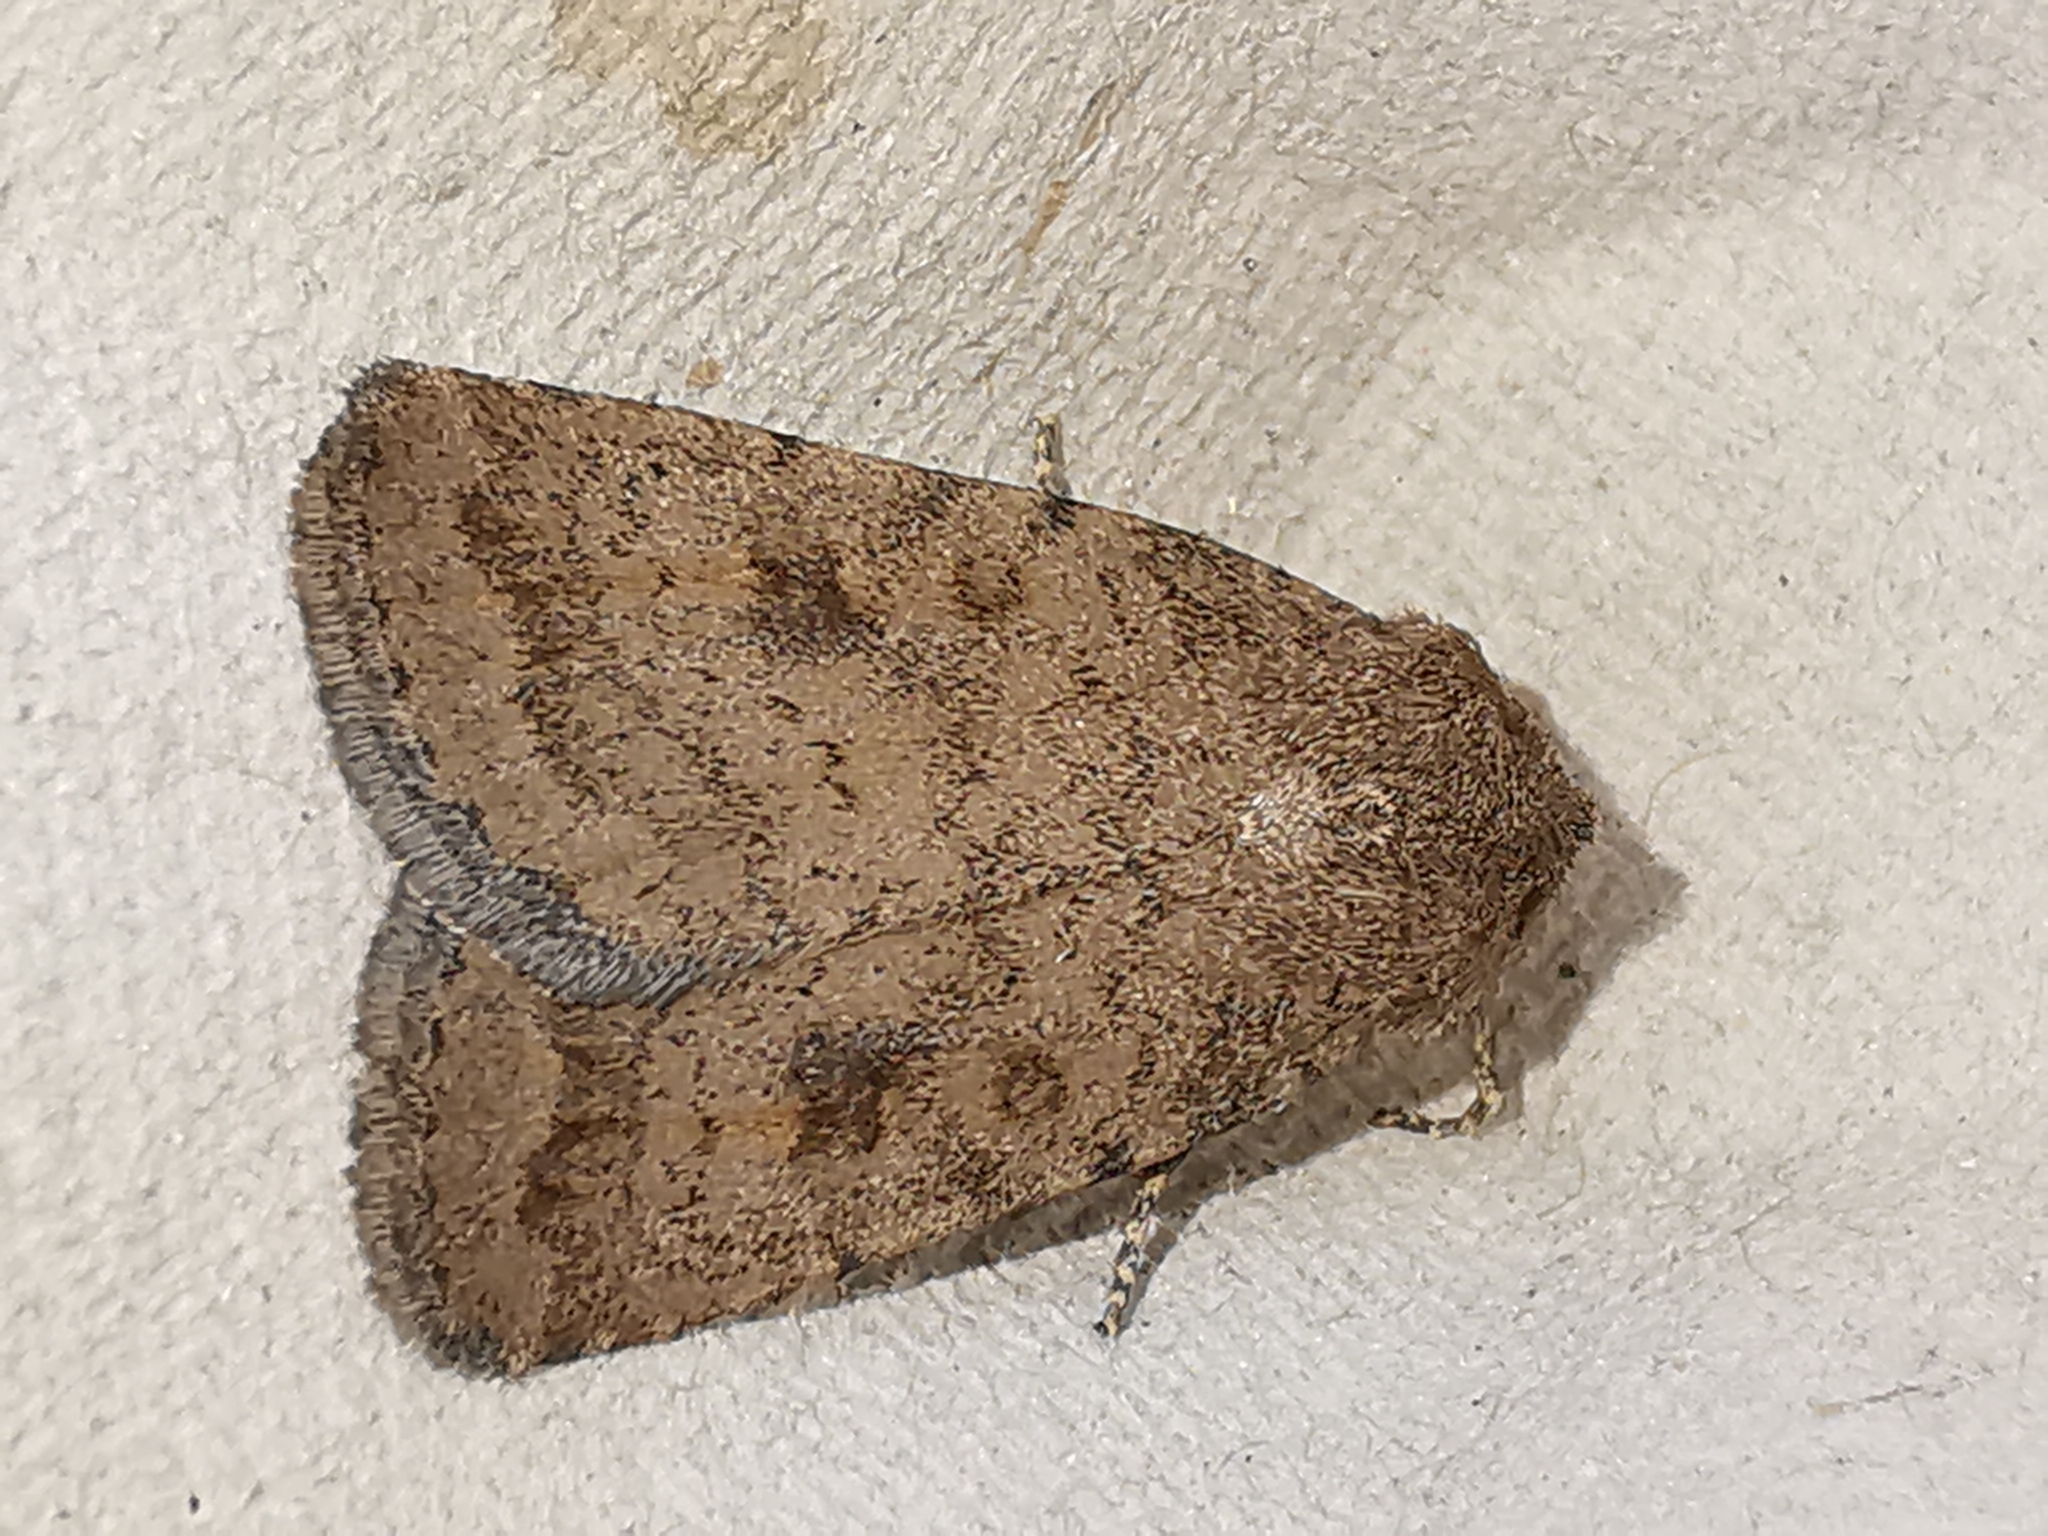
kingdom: Animalia
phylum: Arthropoda
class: Insecta
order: Lepidoptera
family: Noctuidae
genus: Caradrina
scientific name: Caradrina morpheus
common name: Mottled rustic
